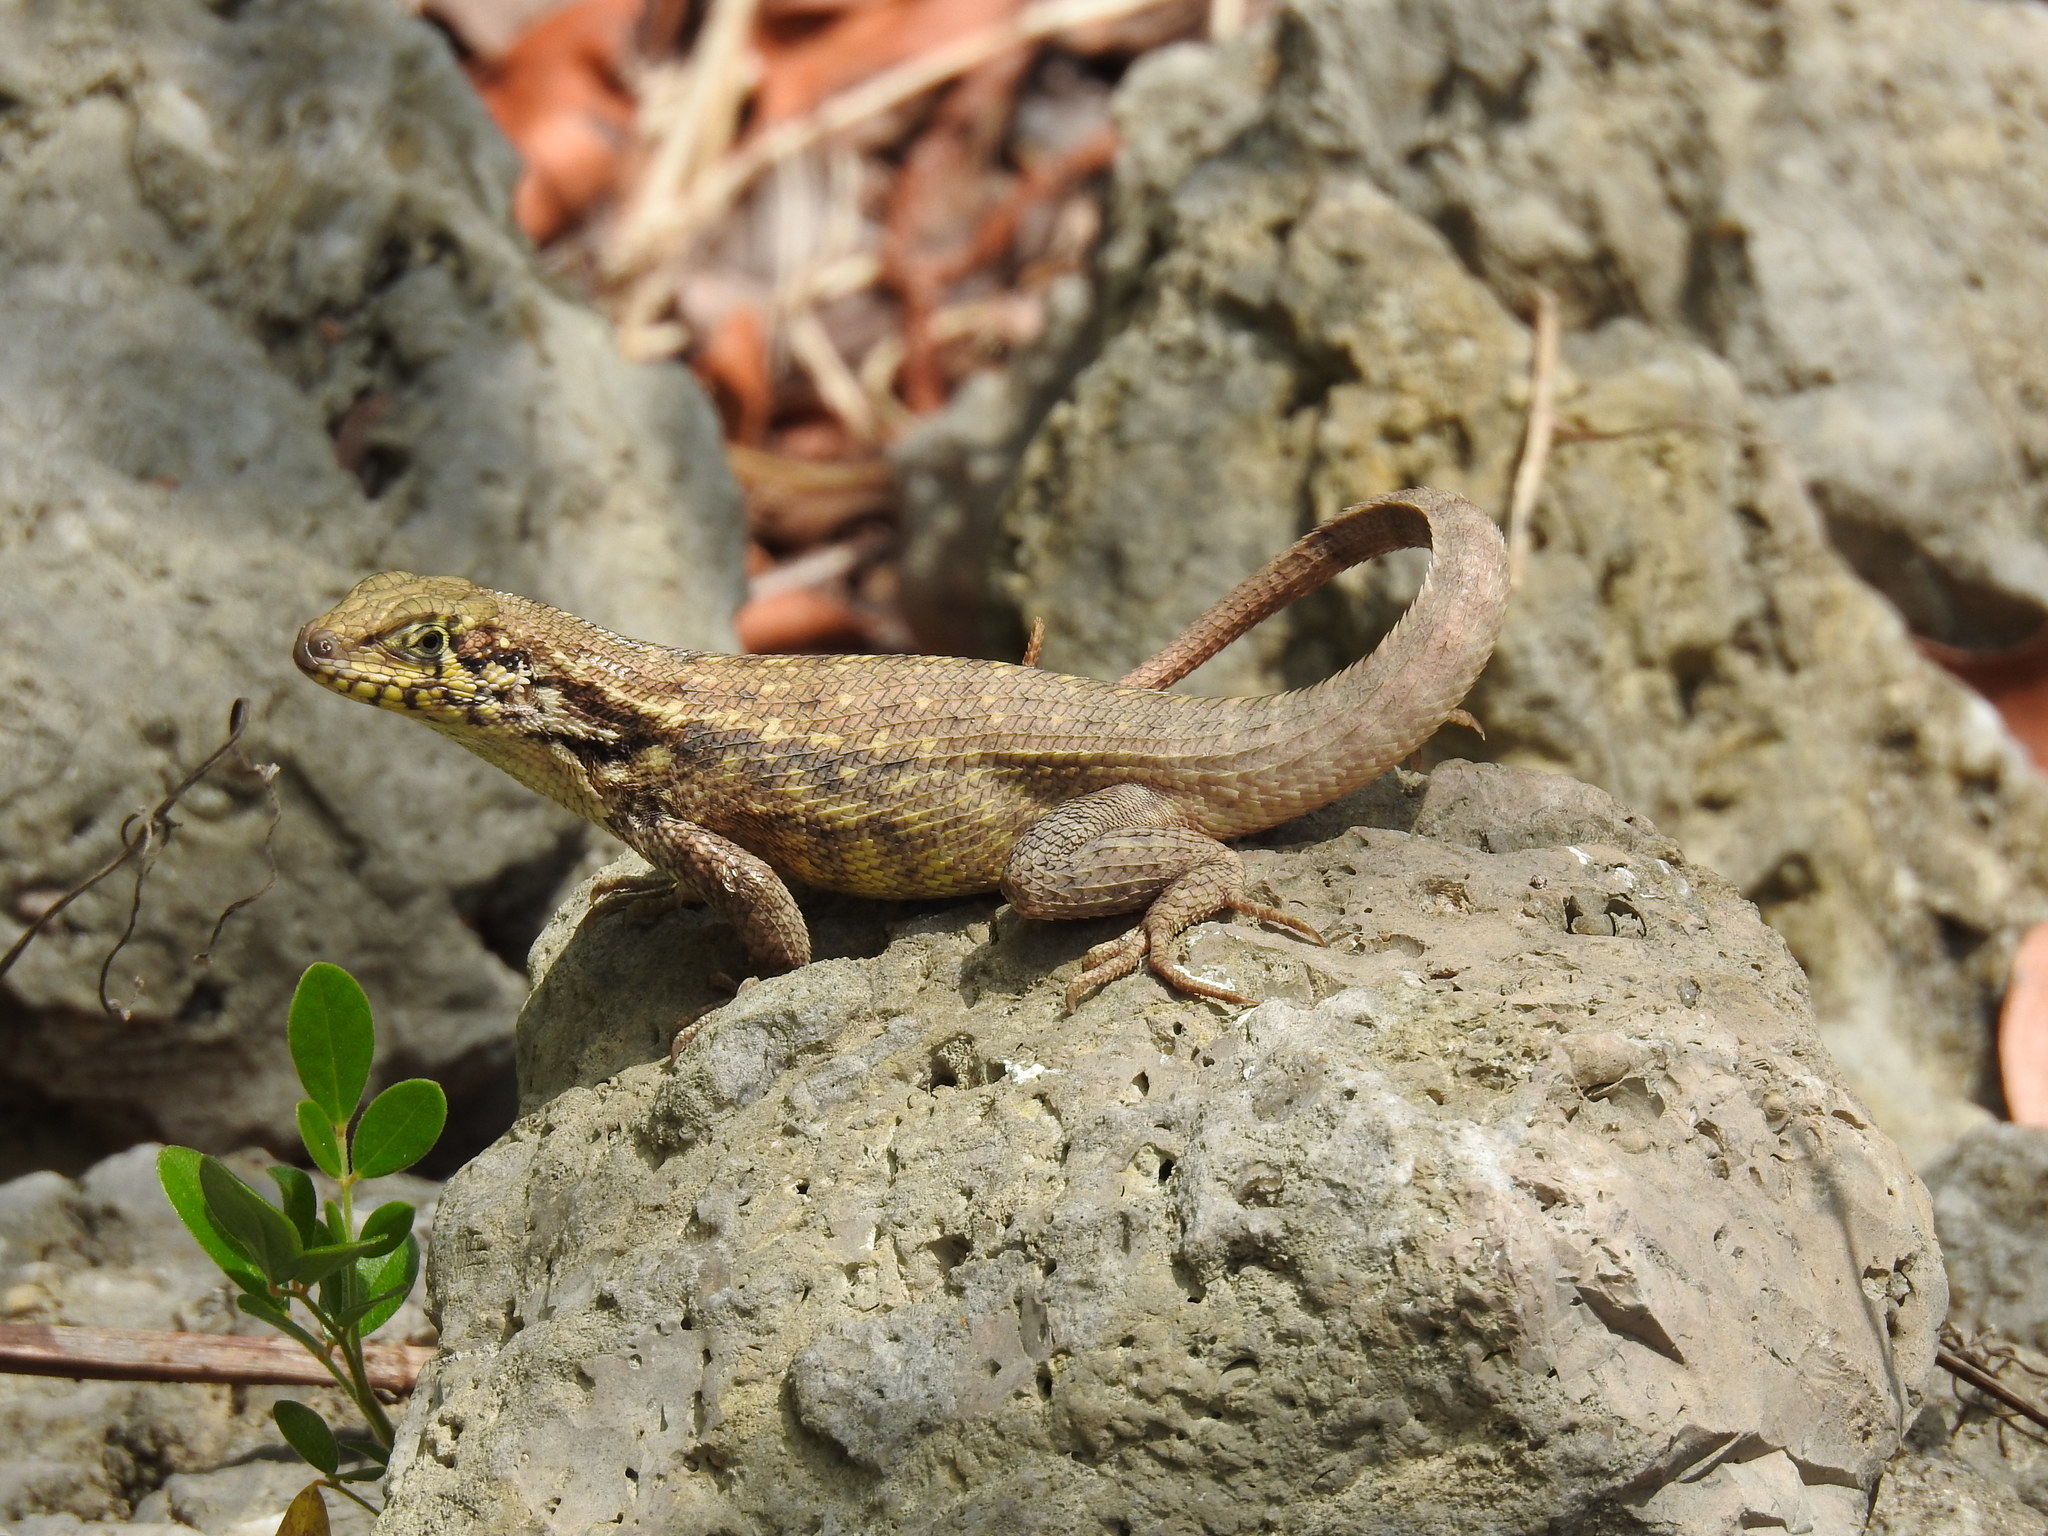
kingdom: Animalia
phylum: Chordata
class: Squamata
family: Leiocephalidae
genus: Leiocephalus
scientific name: Leiocephalus carinatus
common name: Northern curly-tailed lizard
